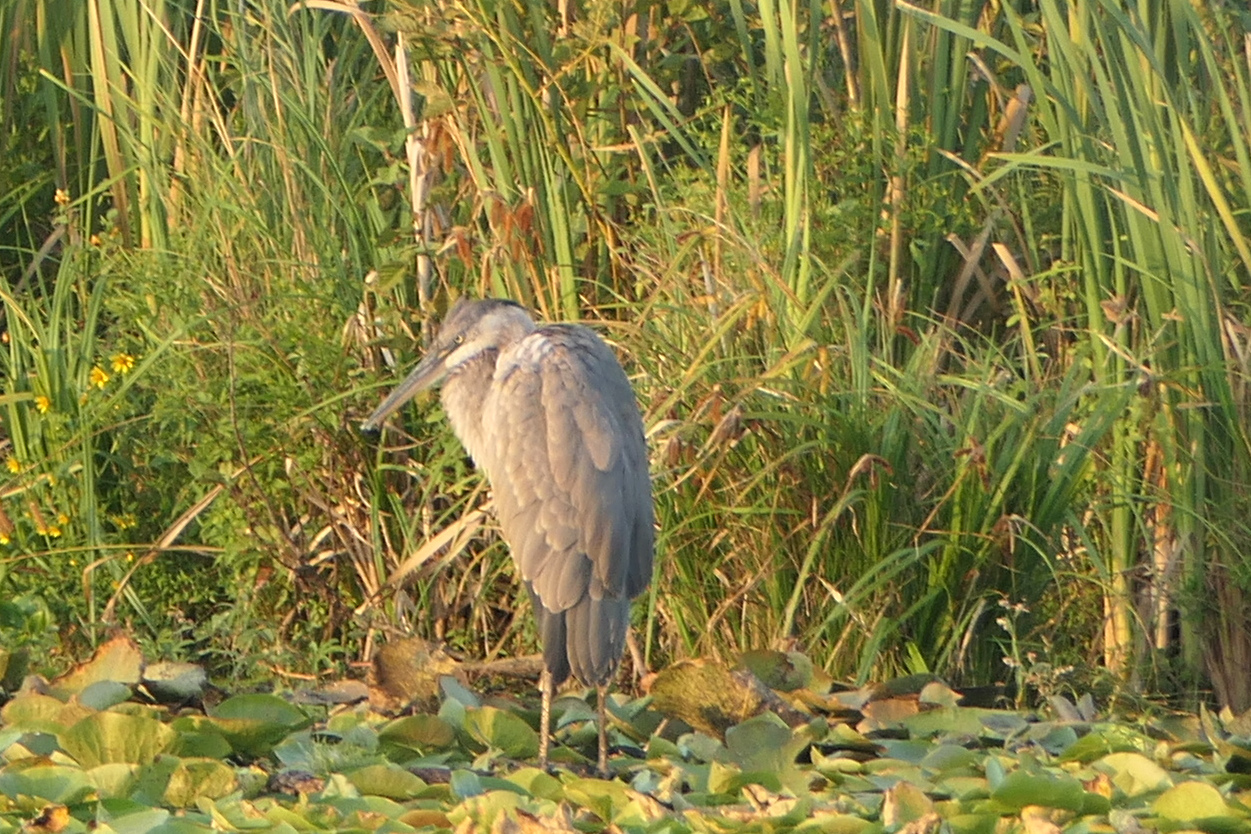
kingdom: Animalia
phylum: Chordata
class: Aves
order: Pelecaniformes
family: Ardeidae
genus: Ardea
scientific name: Ardea herodias
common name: Great blue heron
